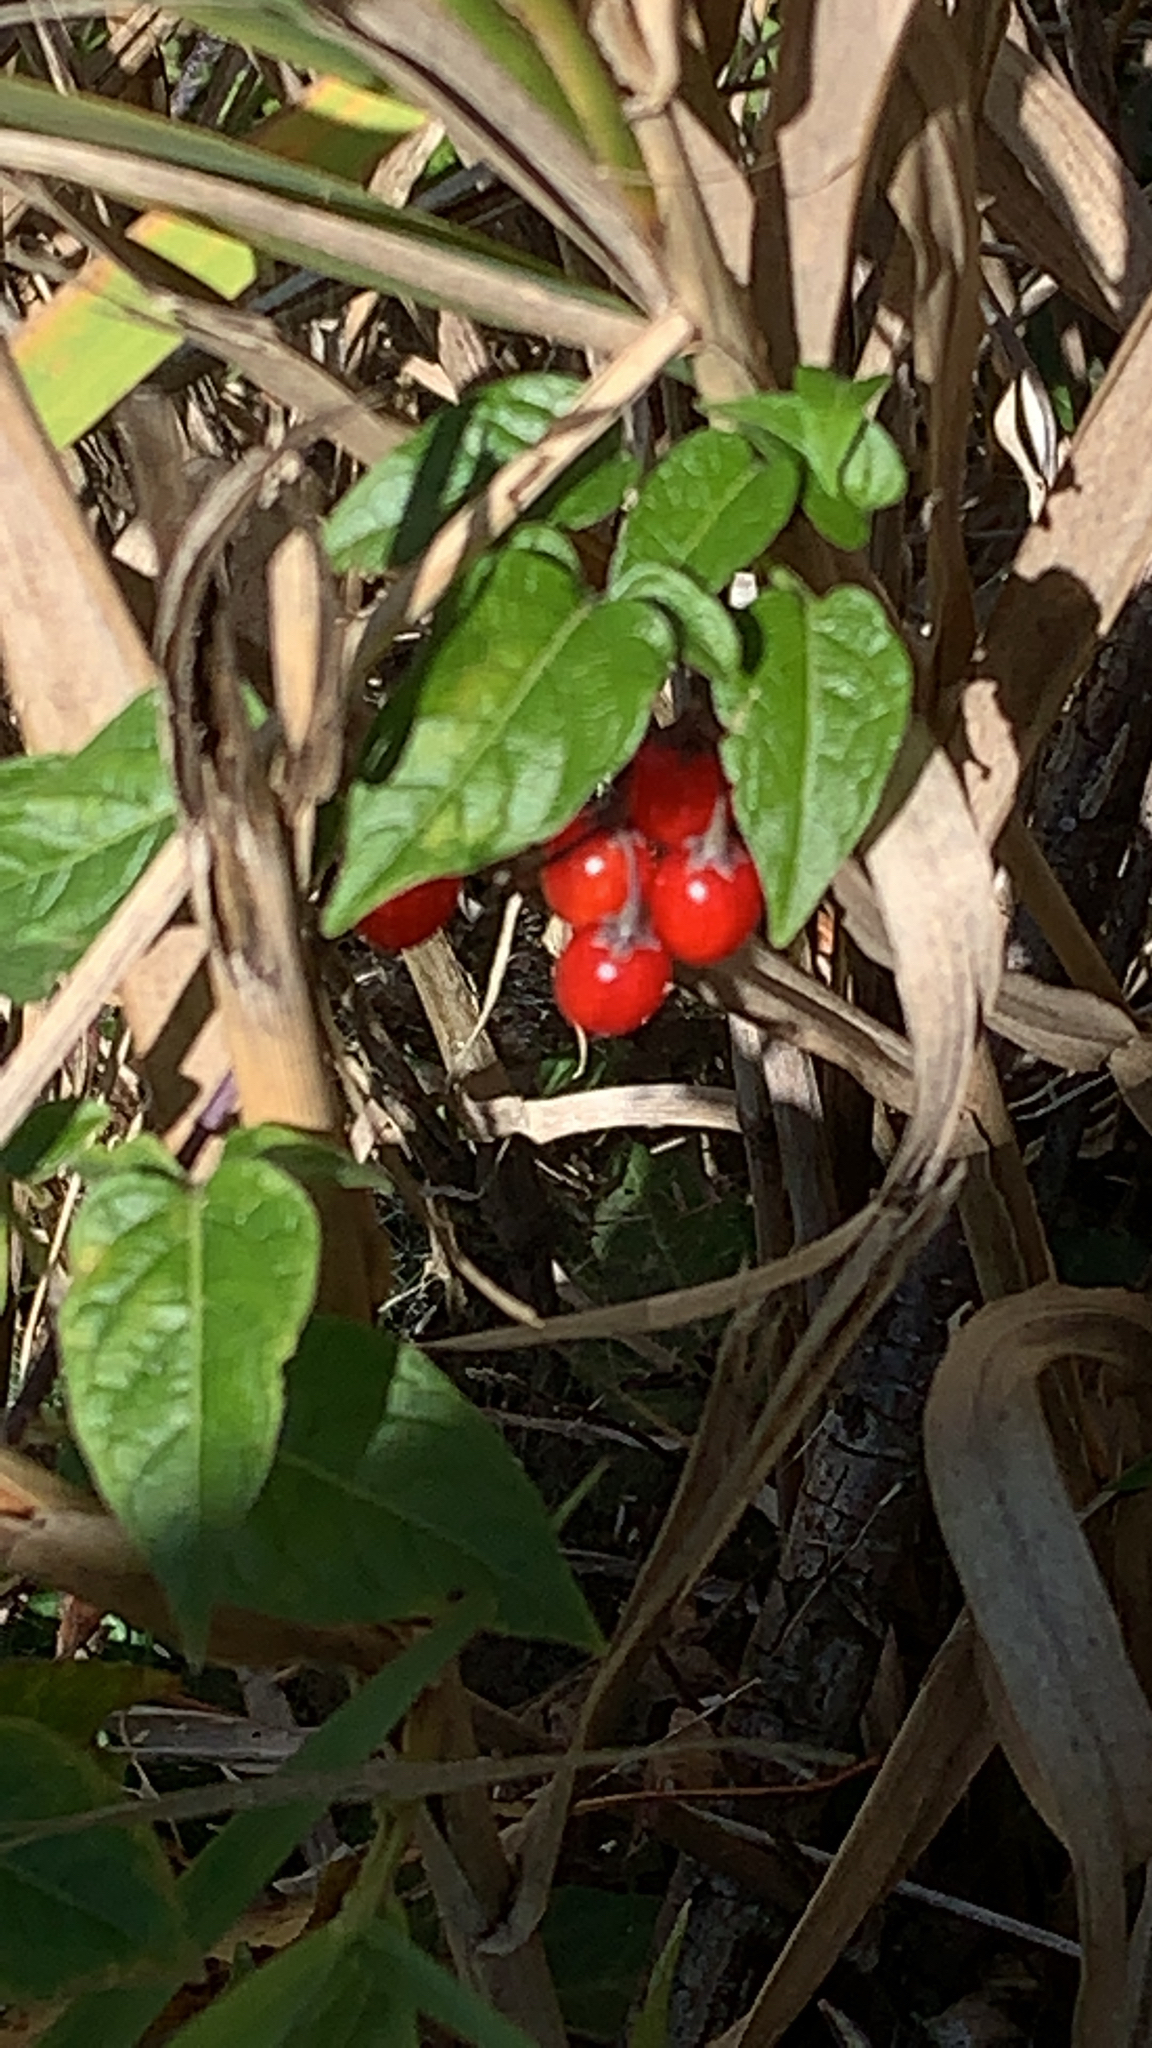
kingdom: Plantae
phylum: Tracheophyta
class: Magnoliopsida
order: Solanales
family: Solanaceae
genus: Solanum
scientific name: Solanum dulcamara
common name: Climbing nightshade
